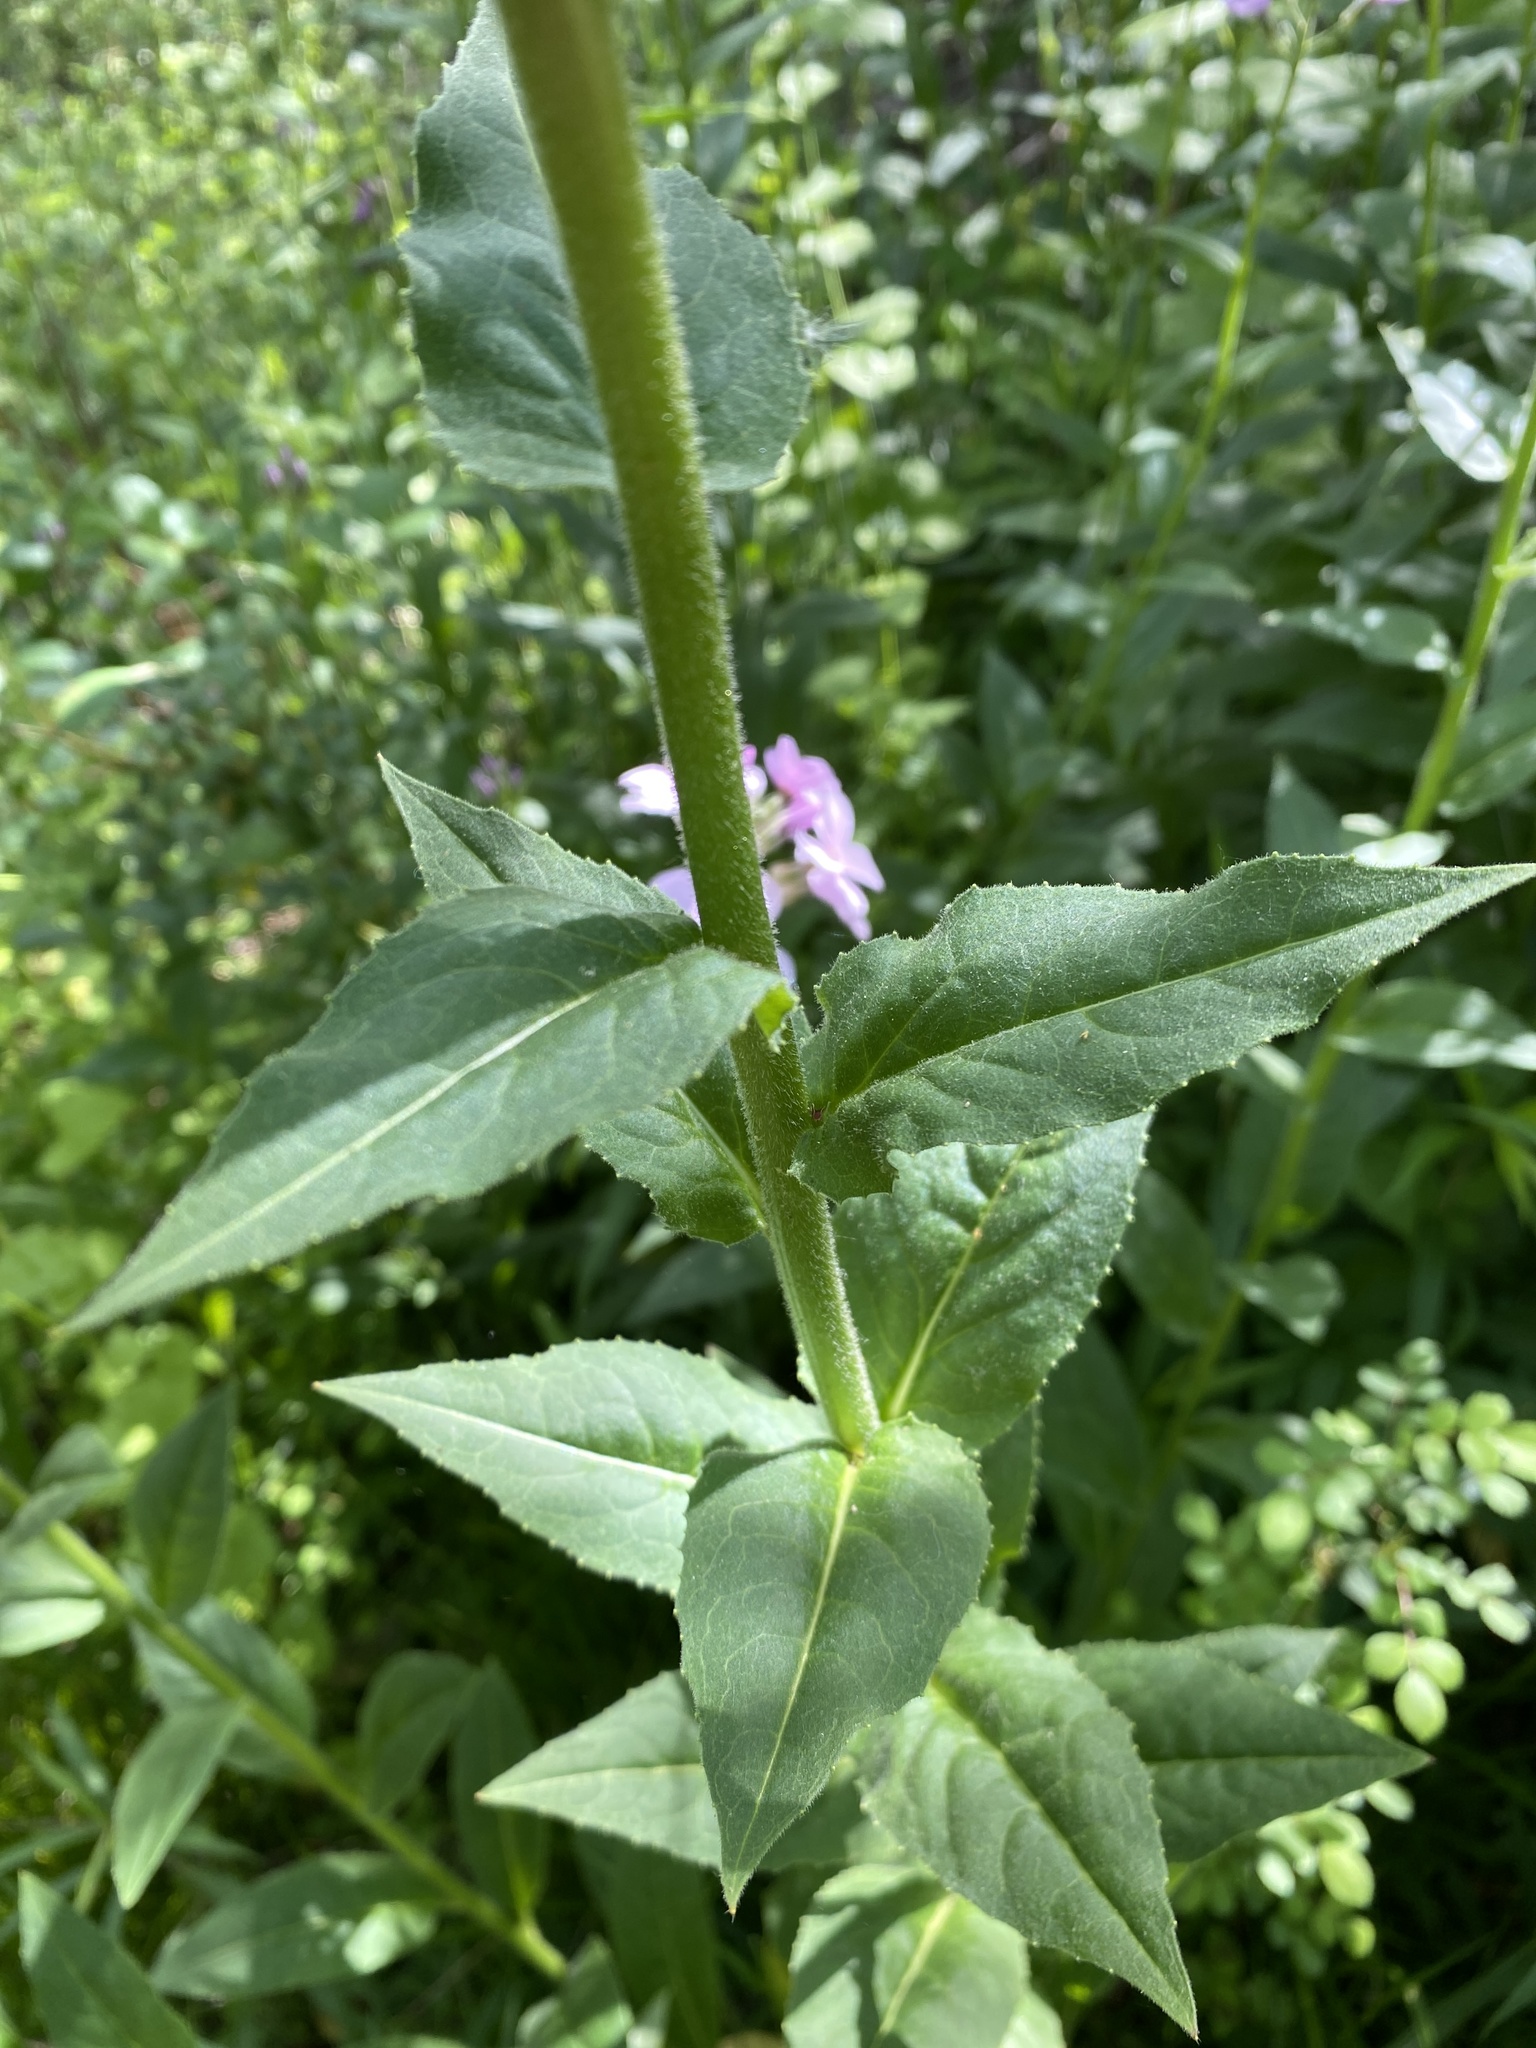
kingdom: Plantae
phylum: Tracheophyta
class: Magnoliopsida
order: Brassicales
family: Brassicaceae
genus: Hesperis
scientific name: Hesperis matronalis
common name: Dame's-violet
